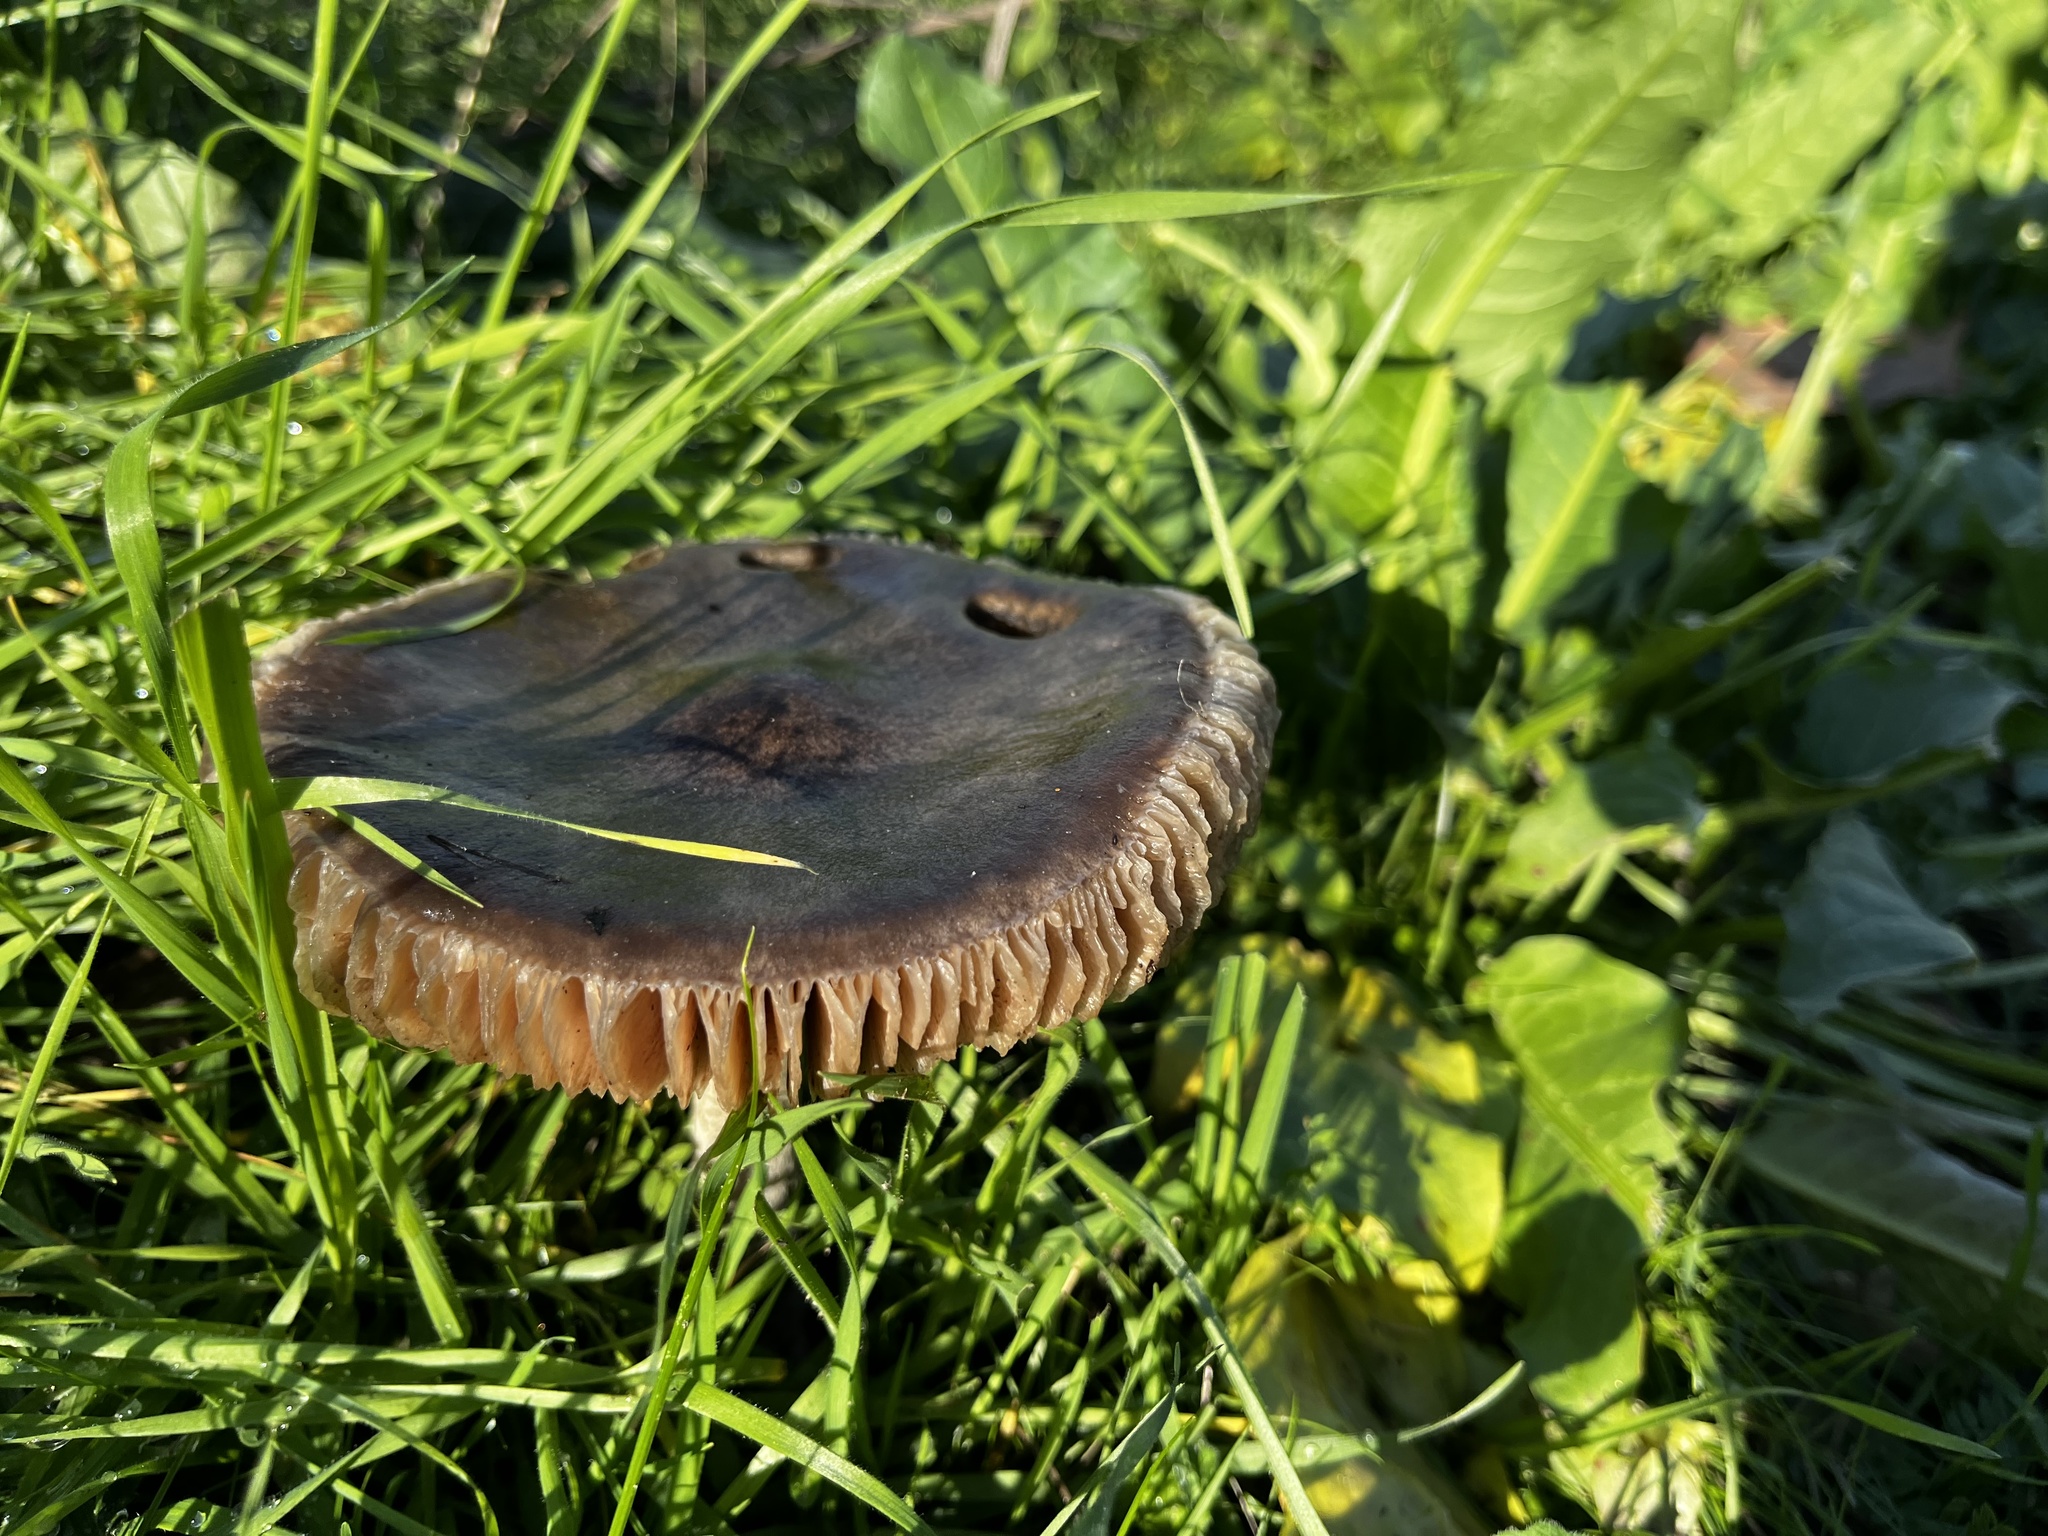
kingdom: Fungi
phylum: Basidiomycota
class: Agaricomycetes
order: Agaricales
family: Pluteaceae
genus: Volvopluteus
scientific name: Volvopluteus gloiocephalus
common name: Stubble rosegill
